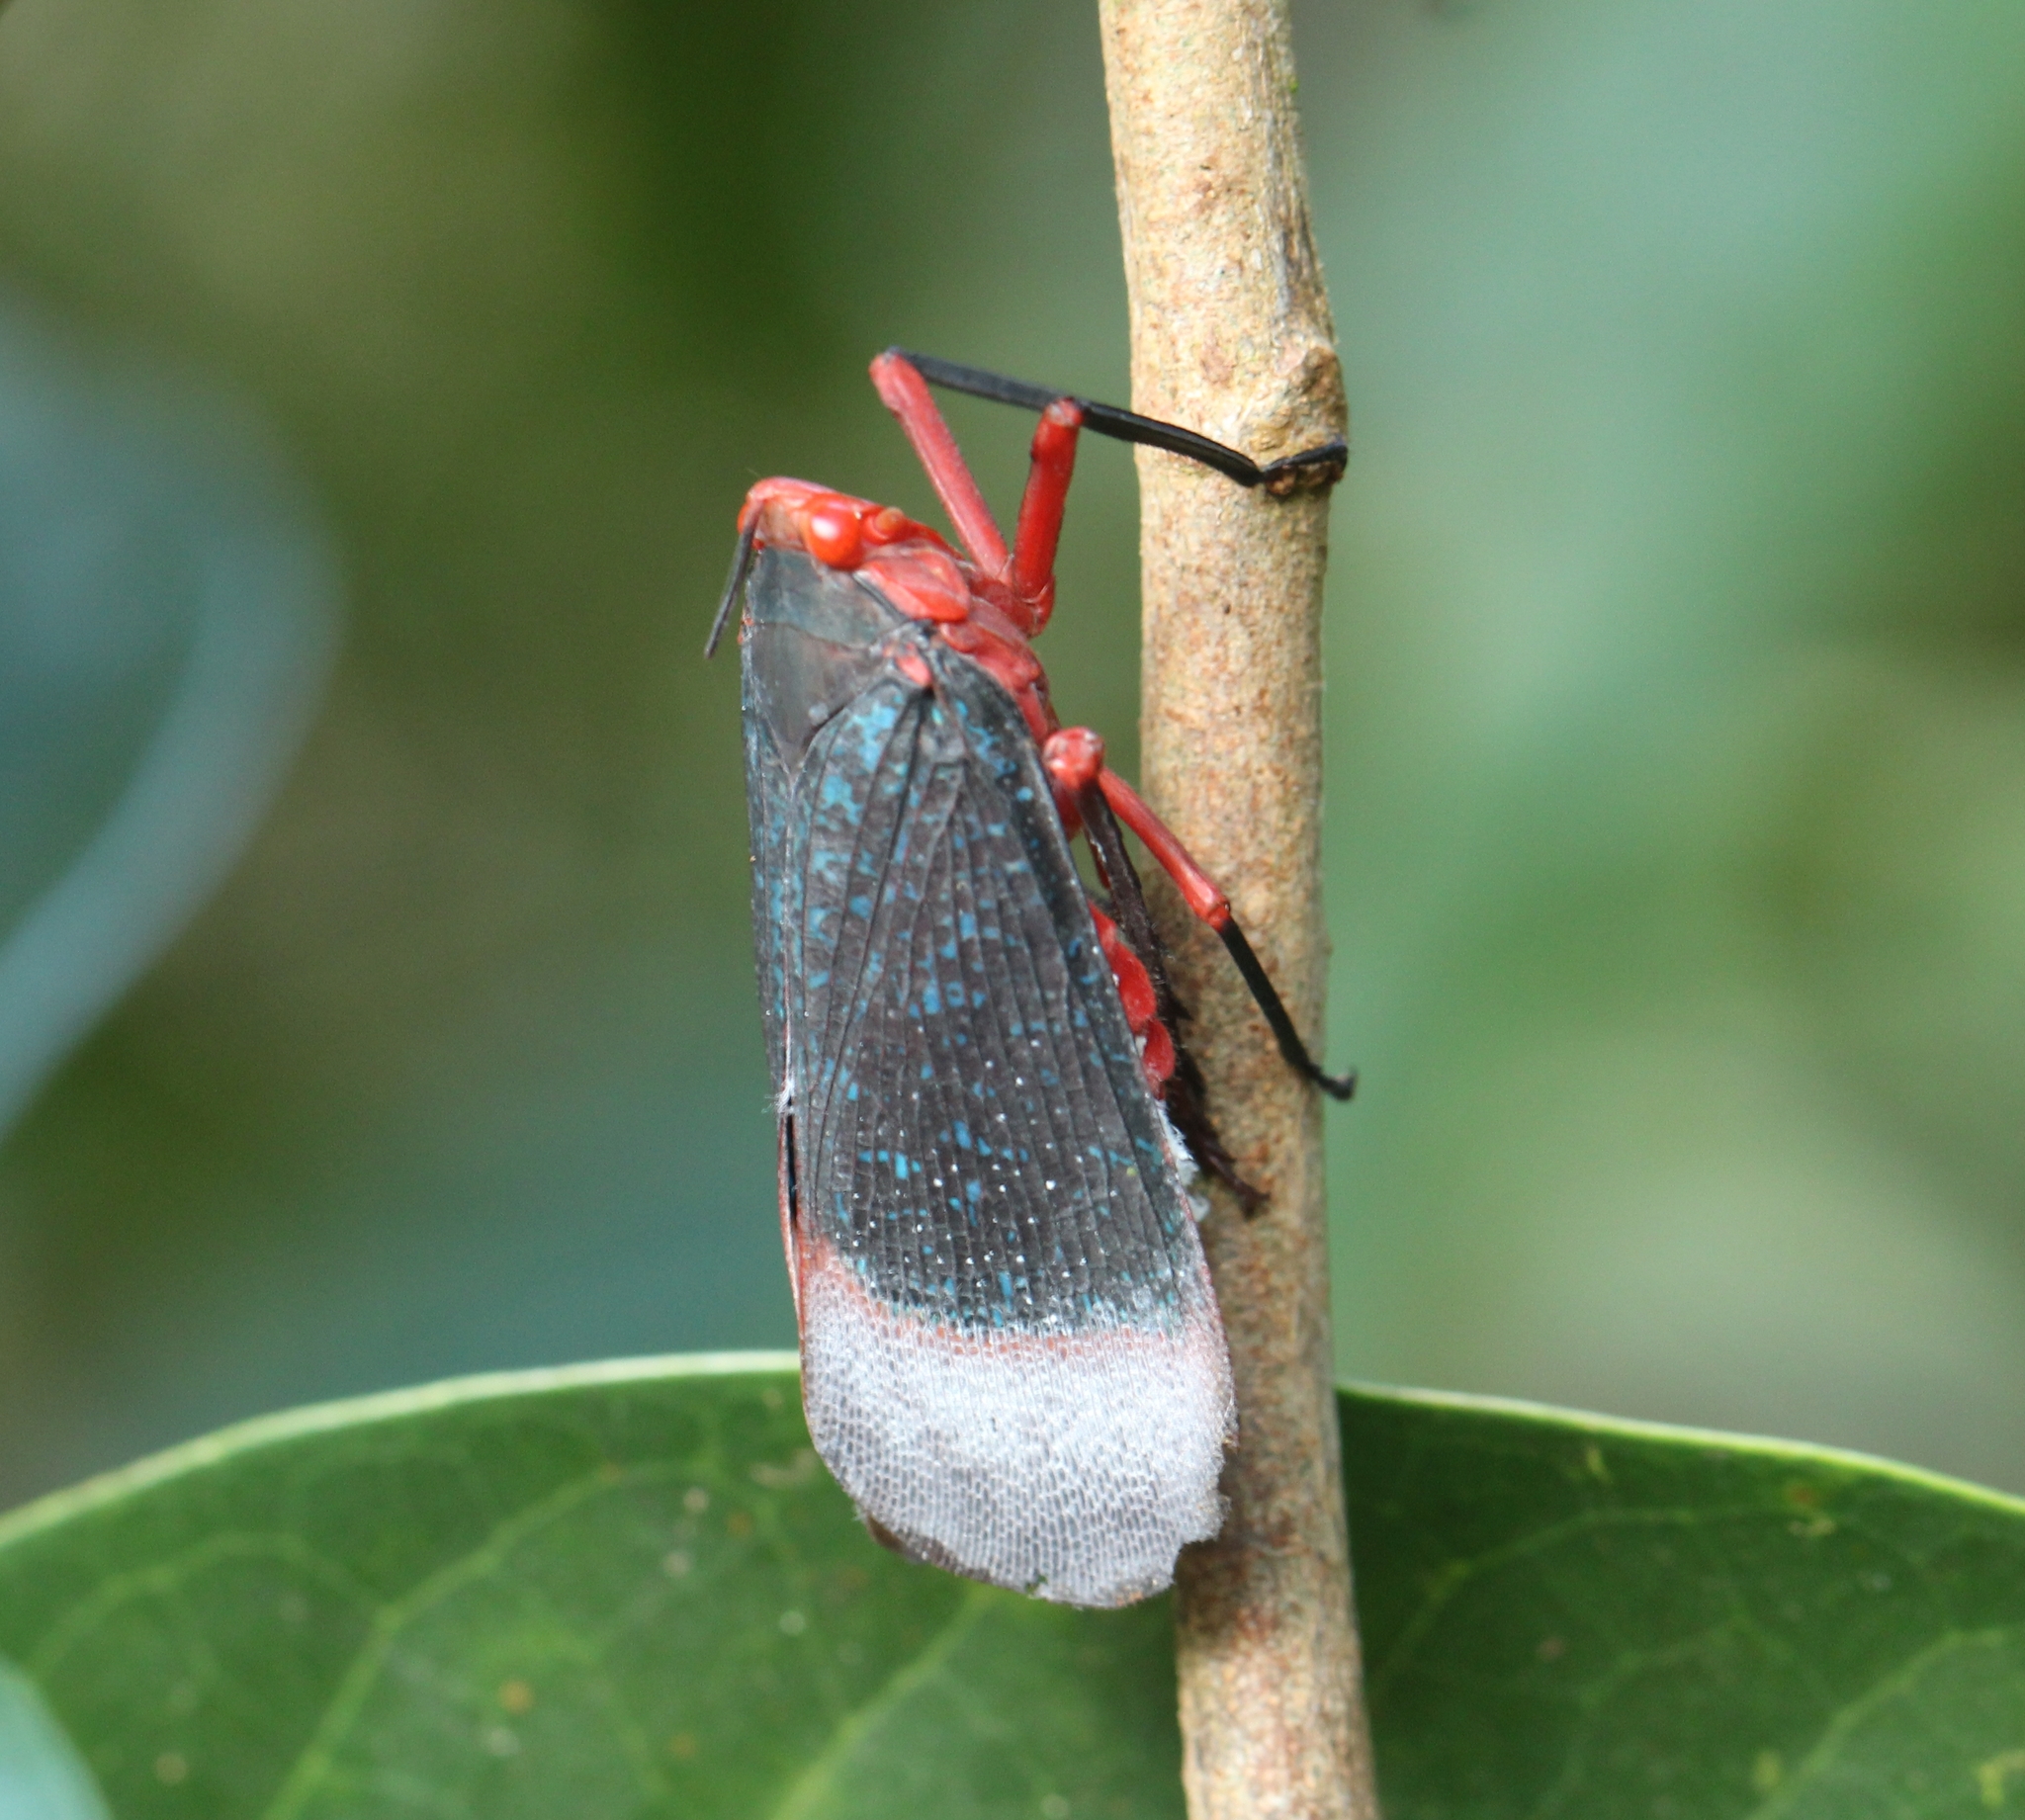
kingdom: Animalia
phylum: Arthropoda
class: Insecta
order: Hemiptera
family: Fulgoridae
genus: Kalidasa
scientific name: Kalidasa lanata
